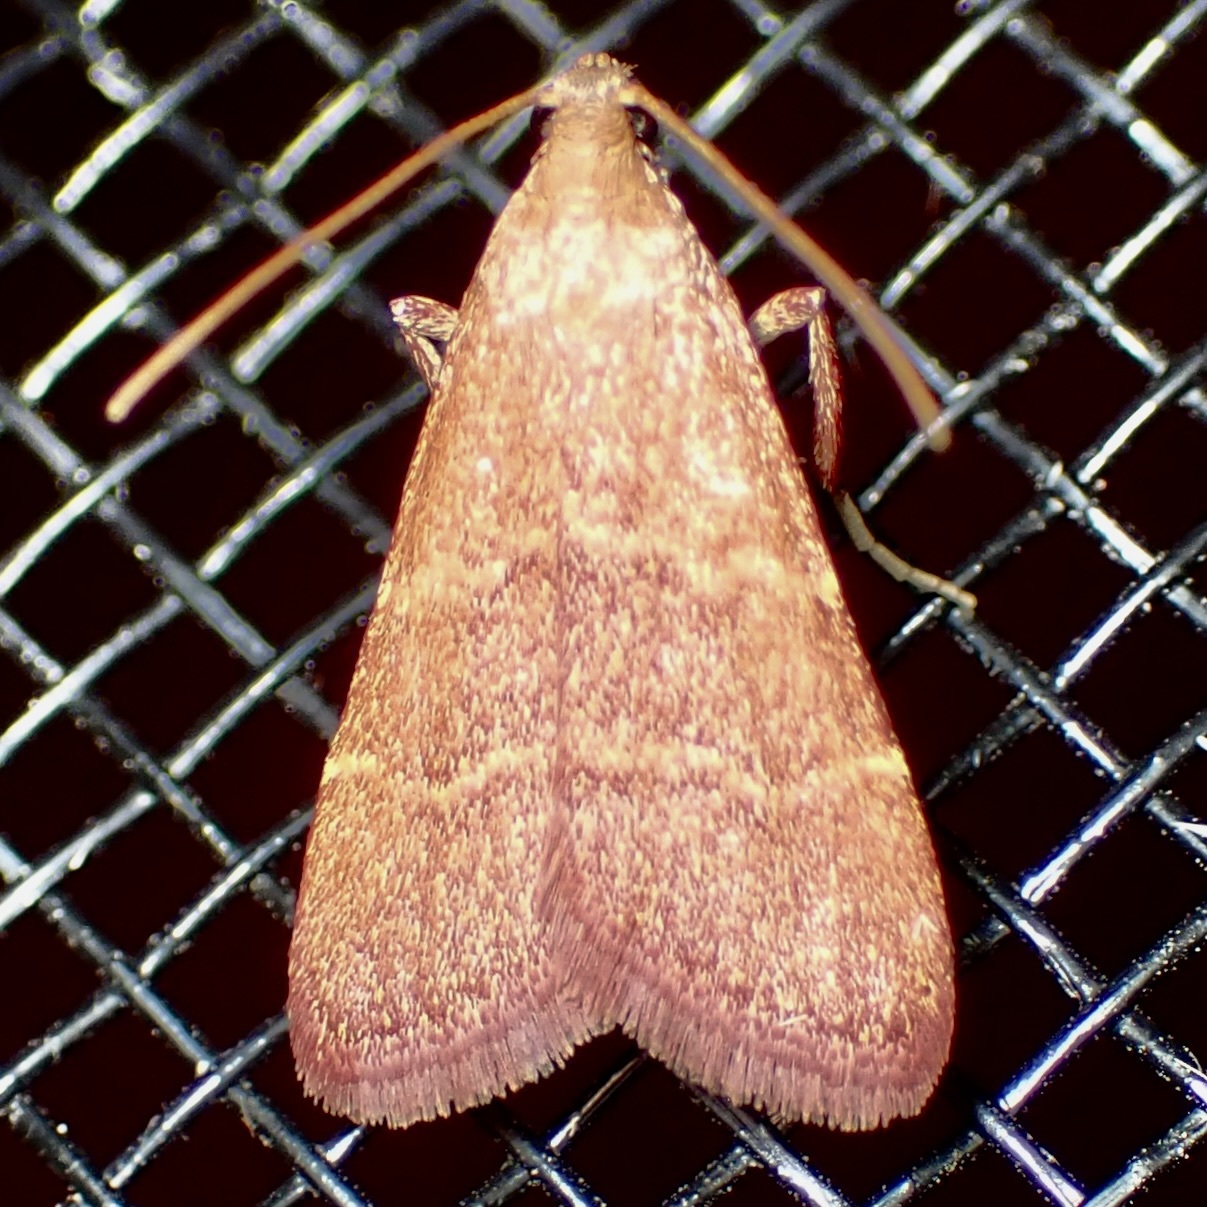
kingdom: Animalia
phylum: Arthropoda
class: Insecta
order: Lepidoptera
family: Pyralidae
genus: Arta
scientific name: Arta epicoenalis
